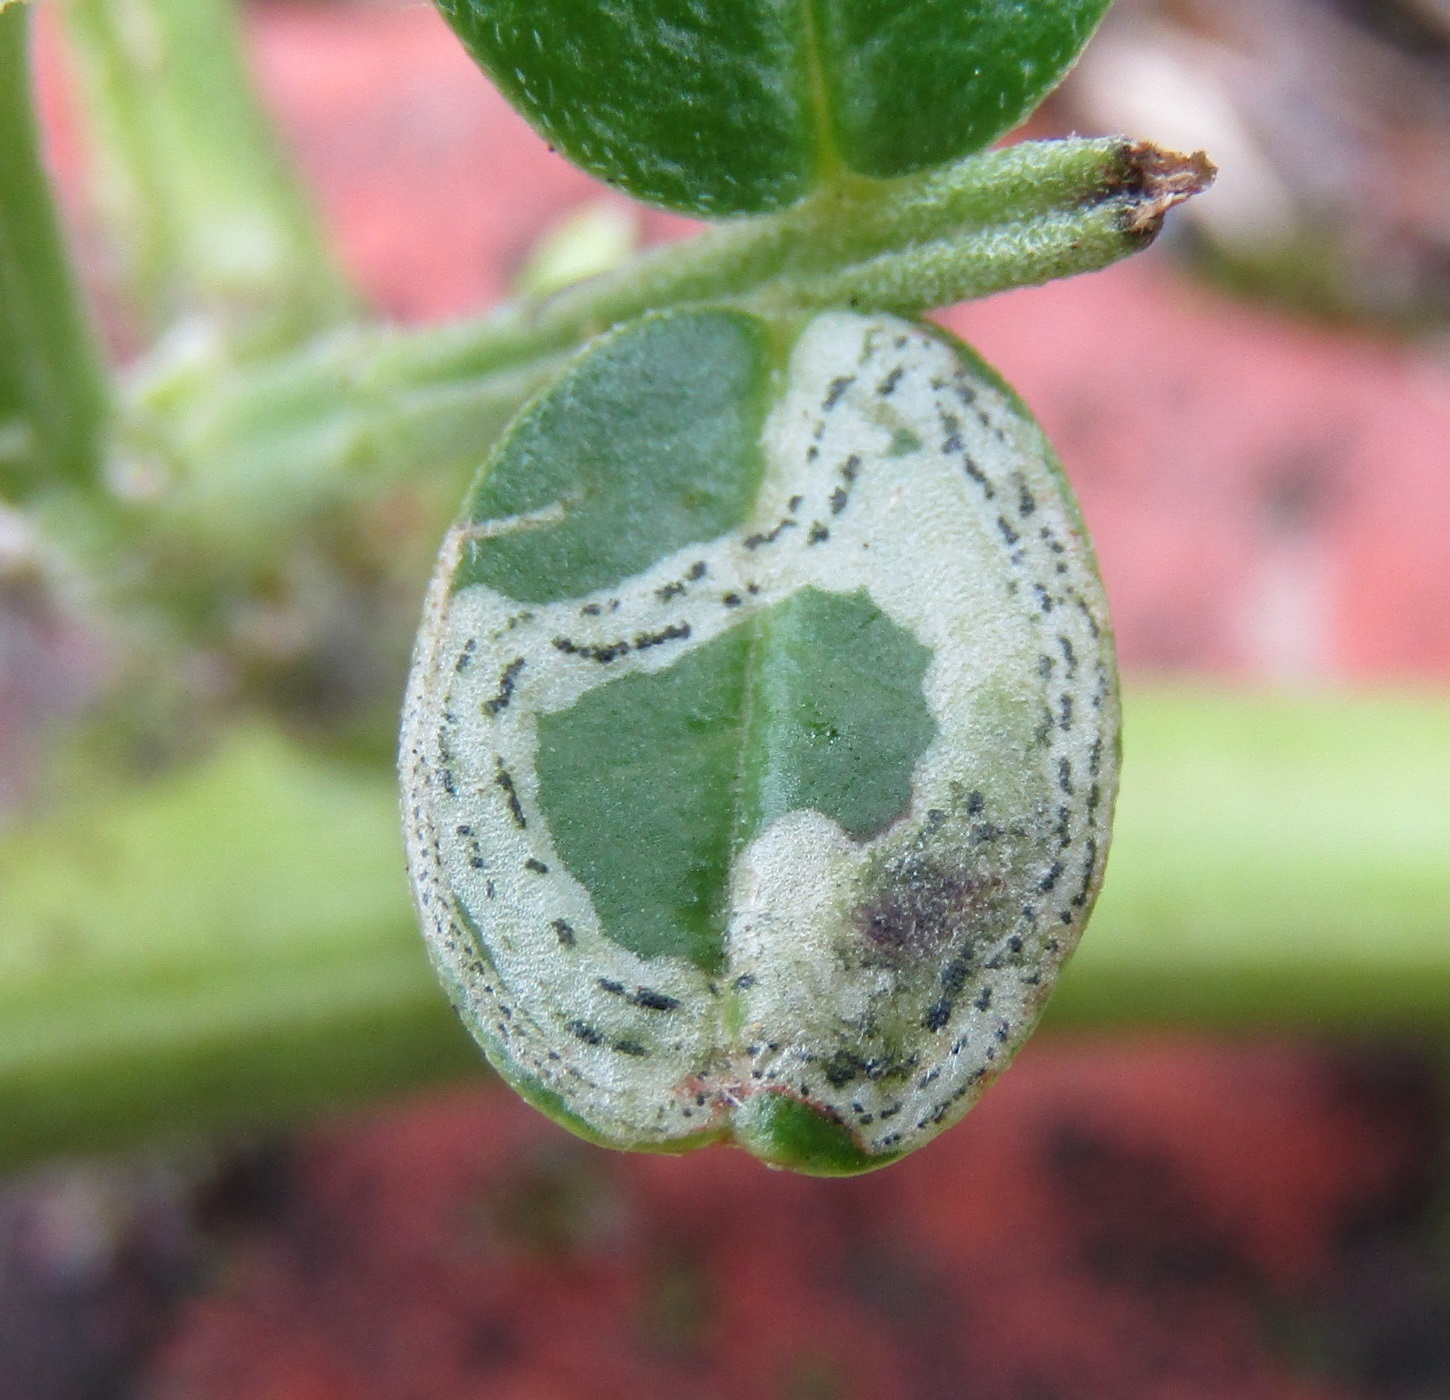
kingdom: Animalia
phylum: Arthropoda
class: Insecta
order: Diptera
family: Agromyzidae
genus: Liriomyza
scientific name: Liriomyza clianthi
